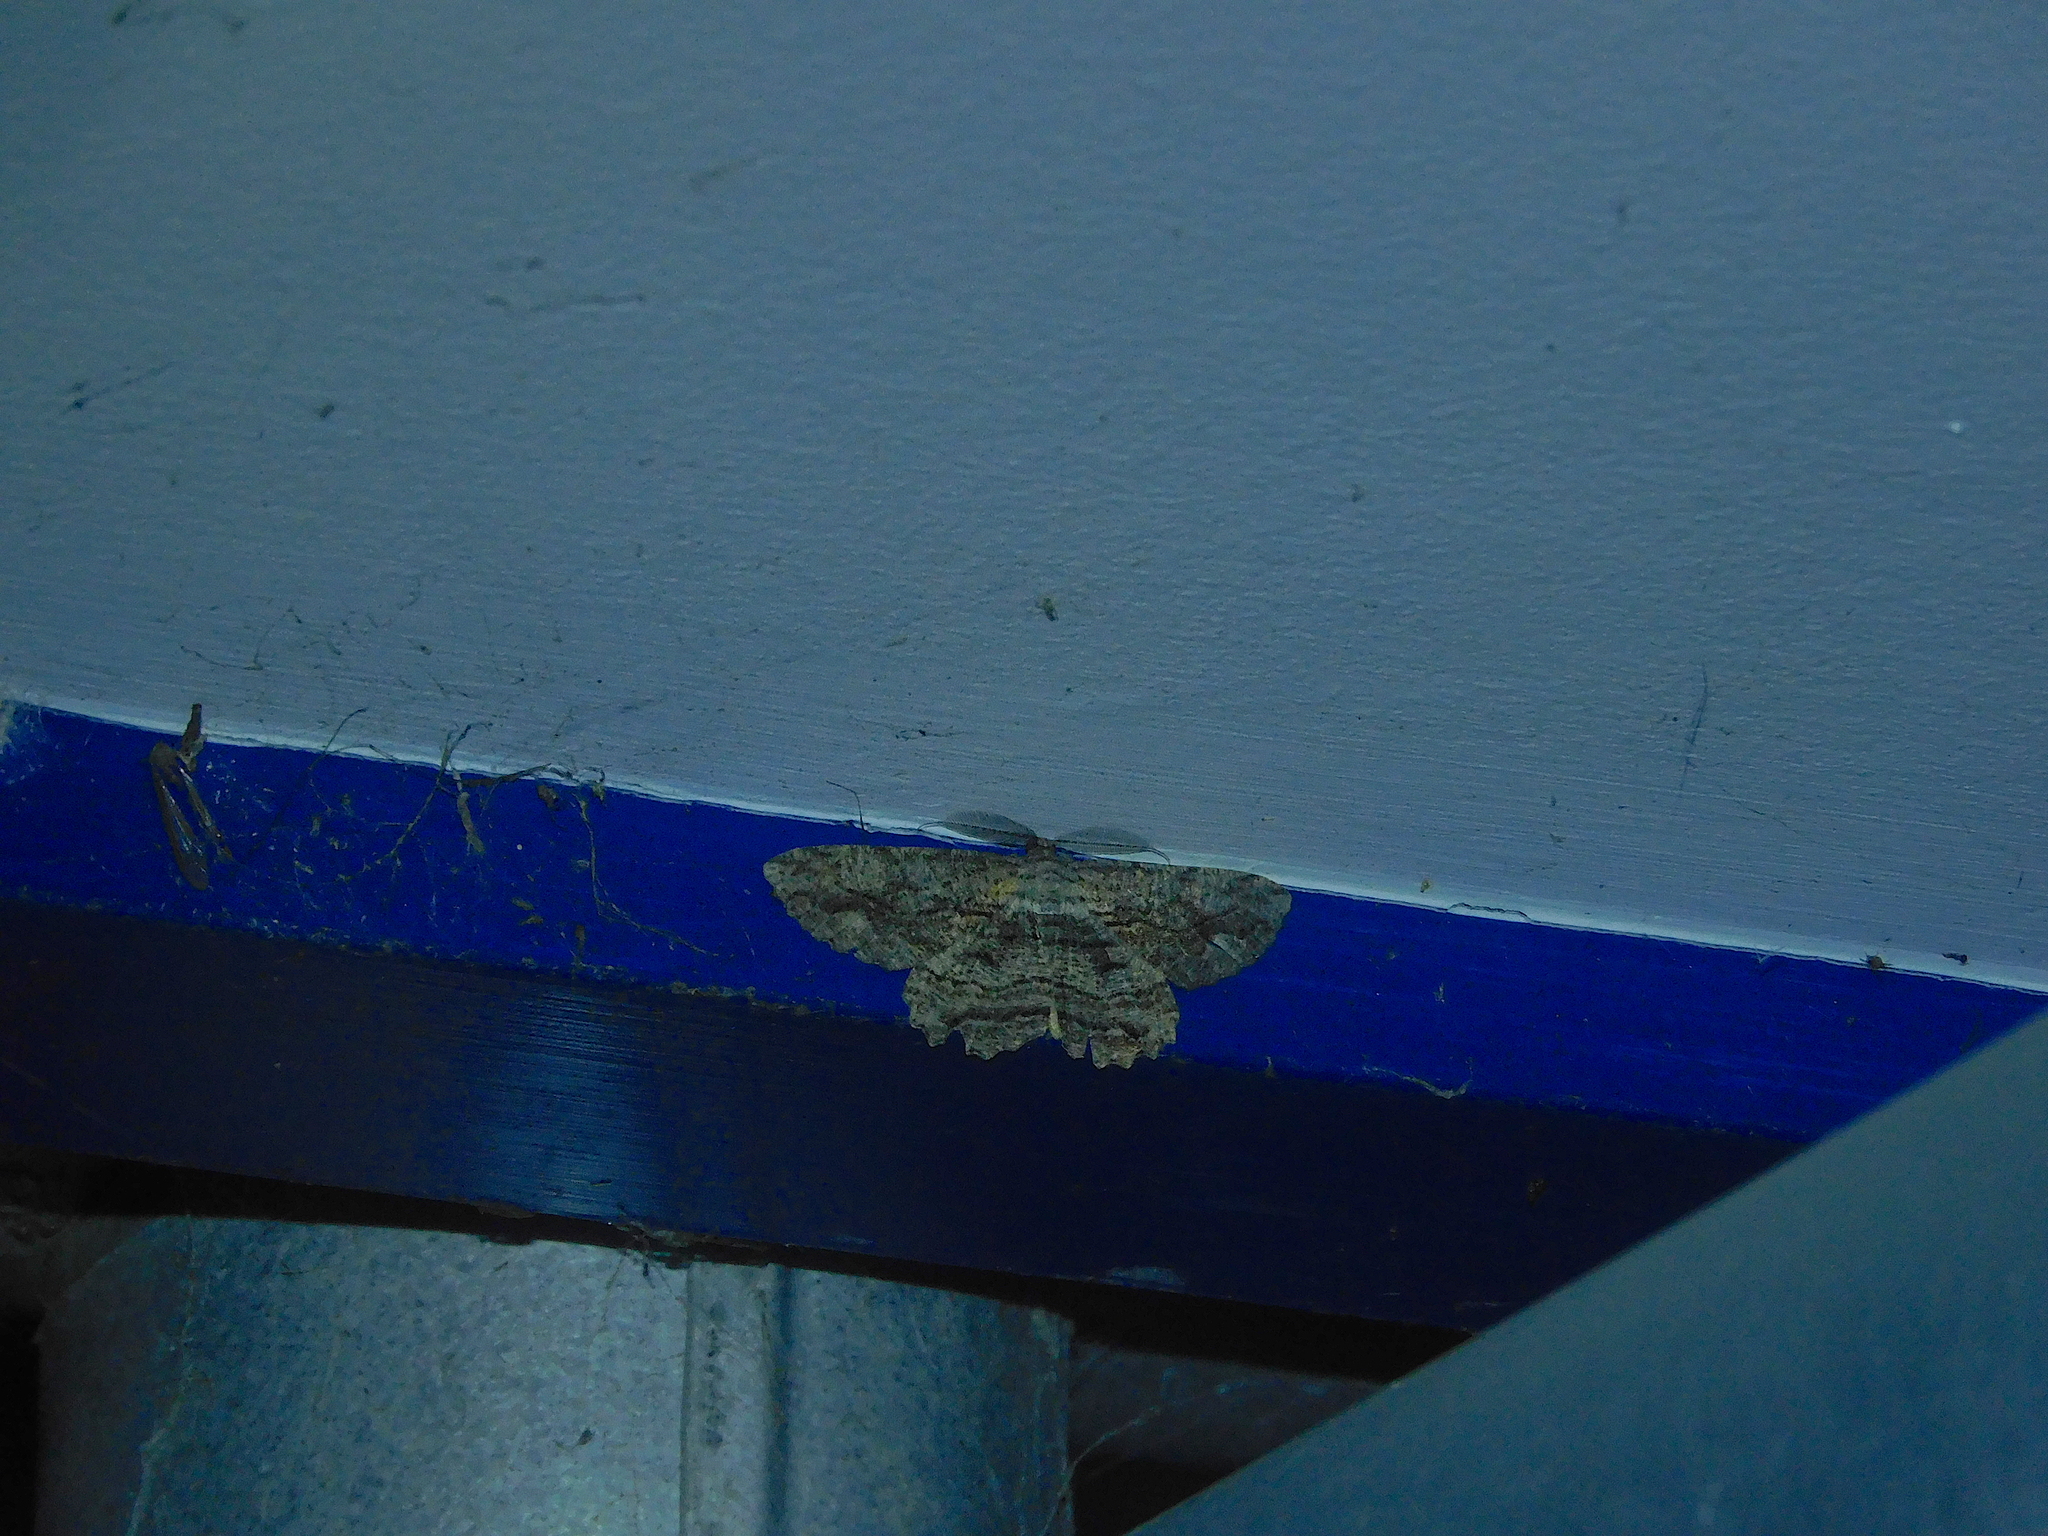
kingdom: Animalia
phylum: Arthropoda
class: Insecta
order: Lepidoptera
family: Geometridae
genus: Scioglyptis
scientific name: Scioglyptis lyciaria
